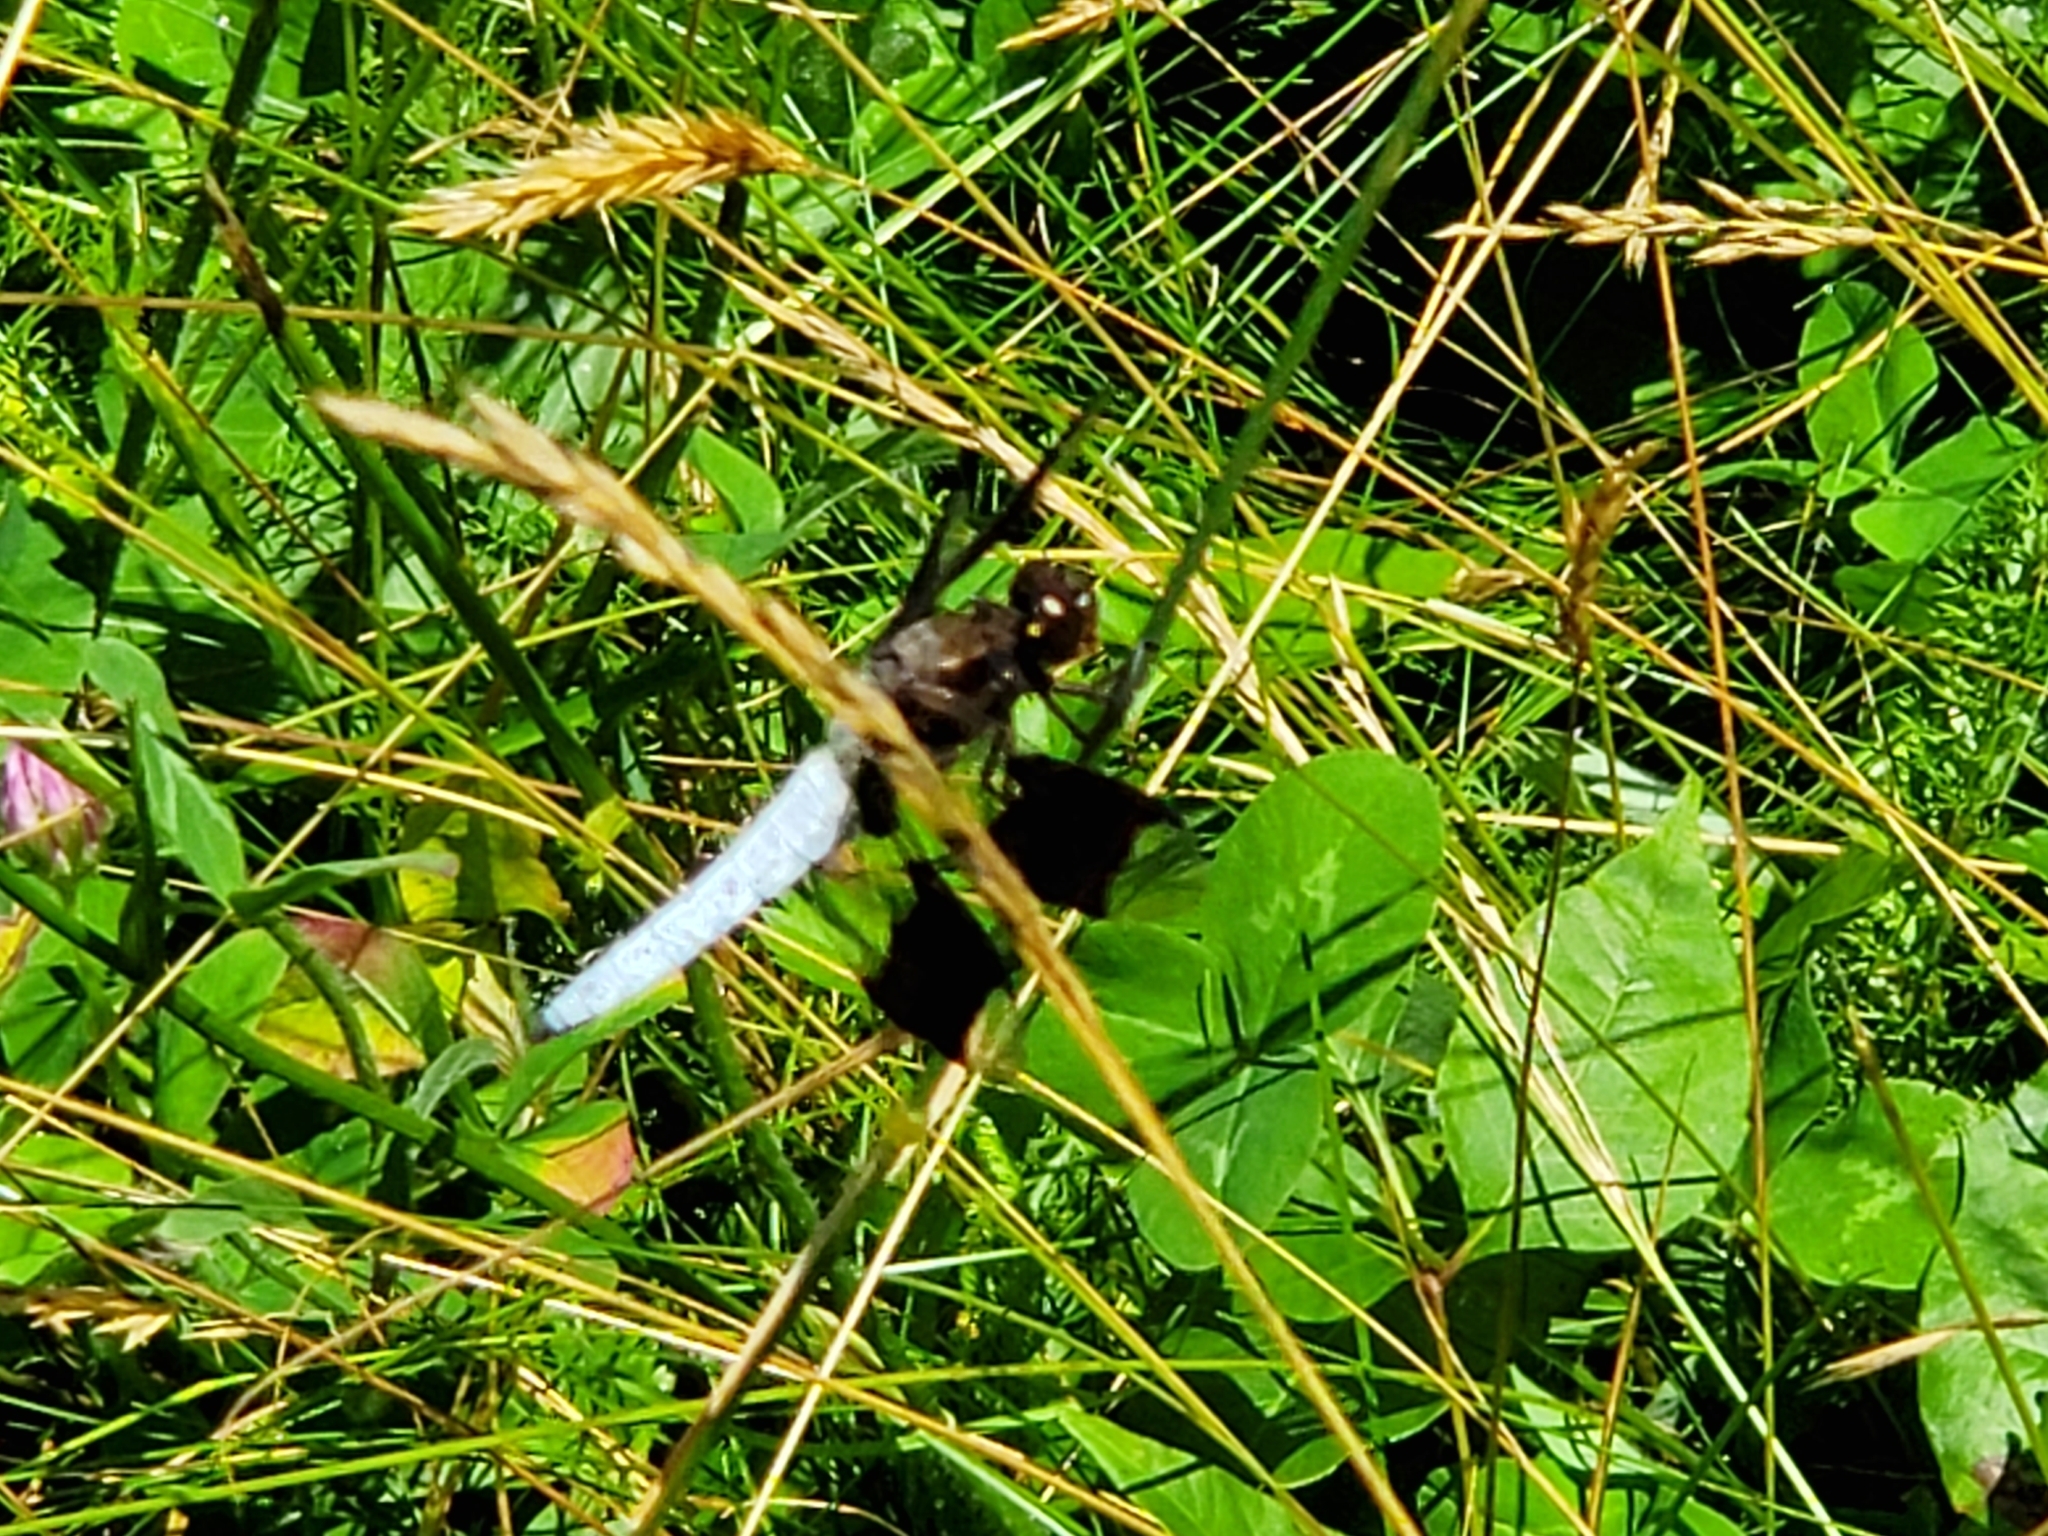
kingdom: Animalia
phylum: Arthropoda
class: Insecta
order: Odonata
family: Libellulidae
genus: Plathemis
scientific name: Plathemis lydia
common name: Common whitetail
